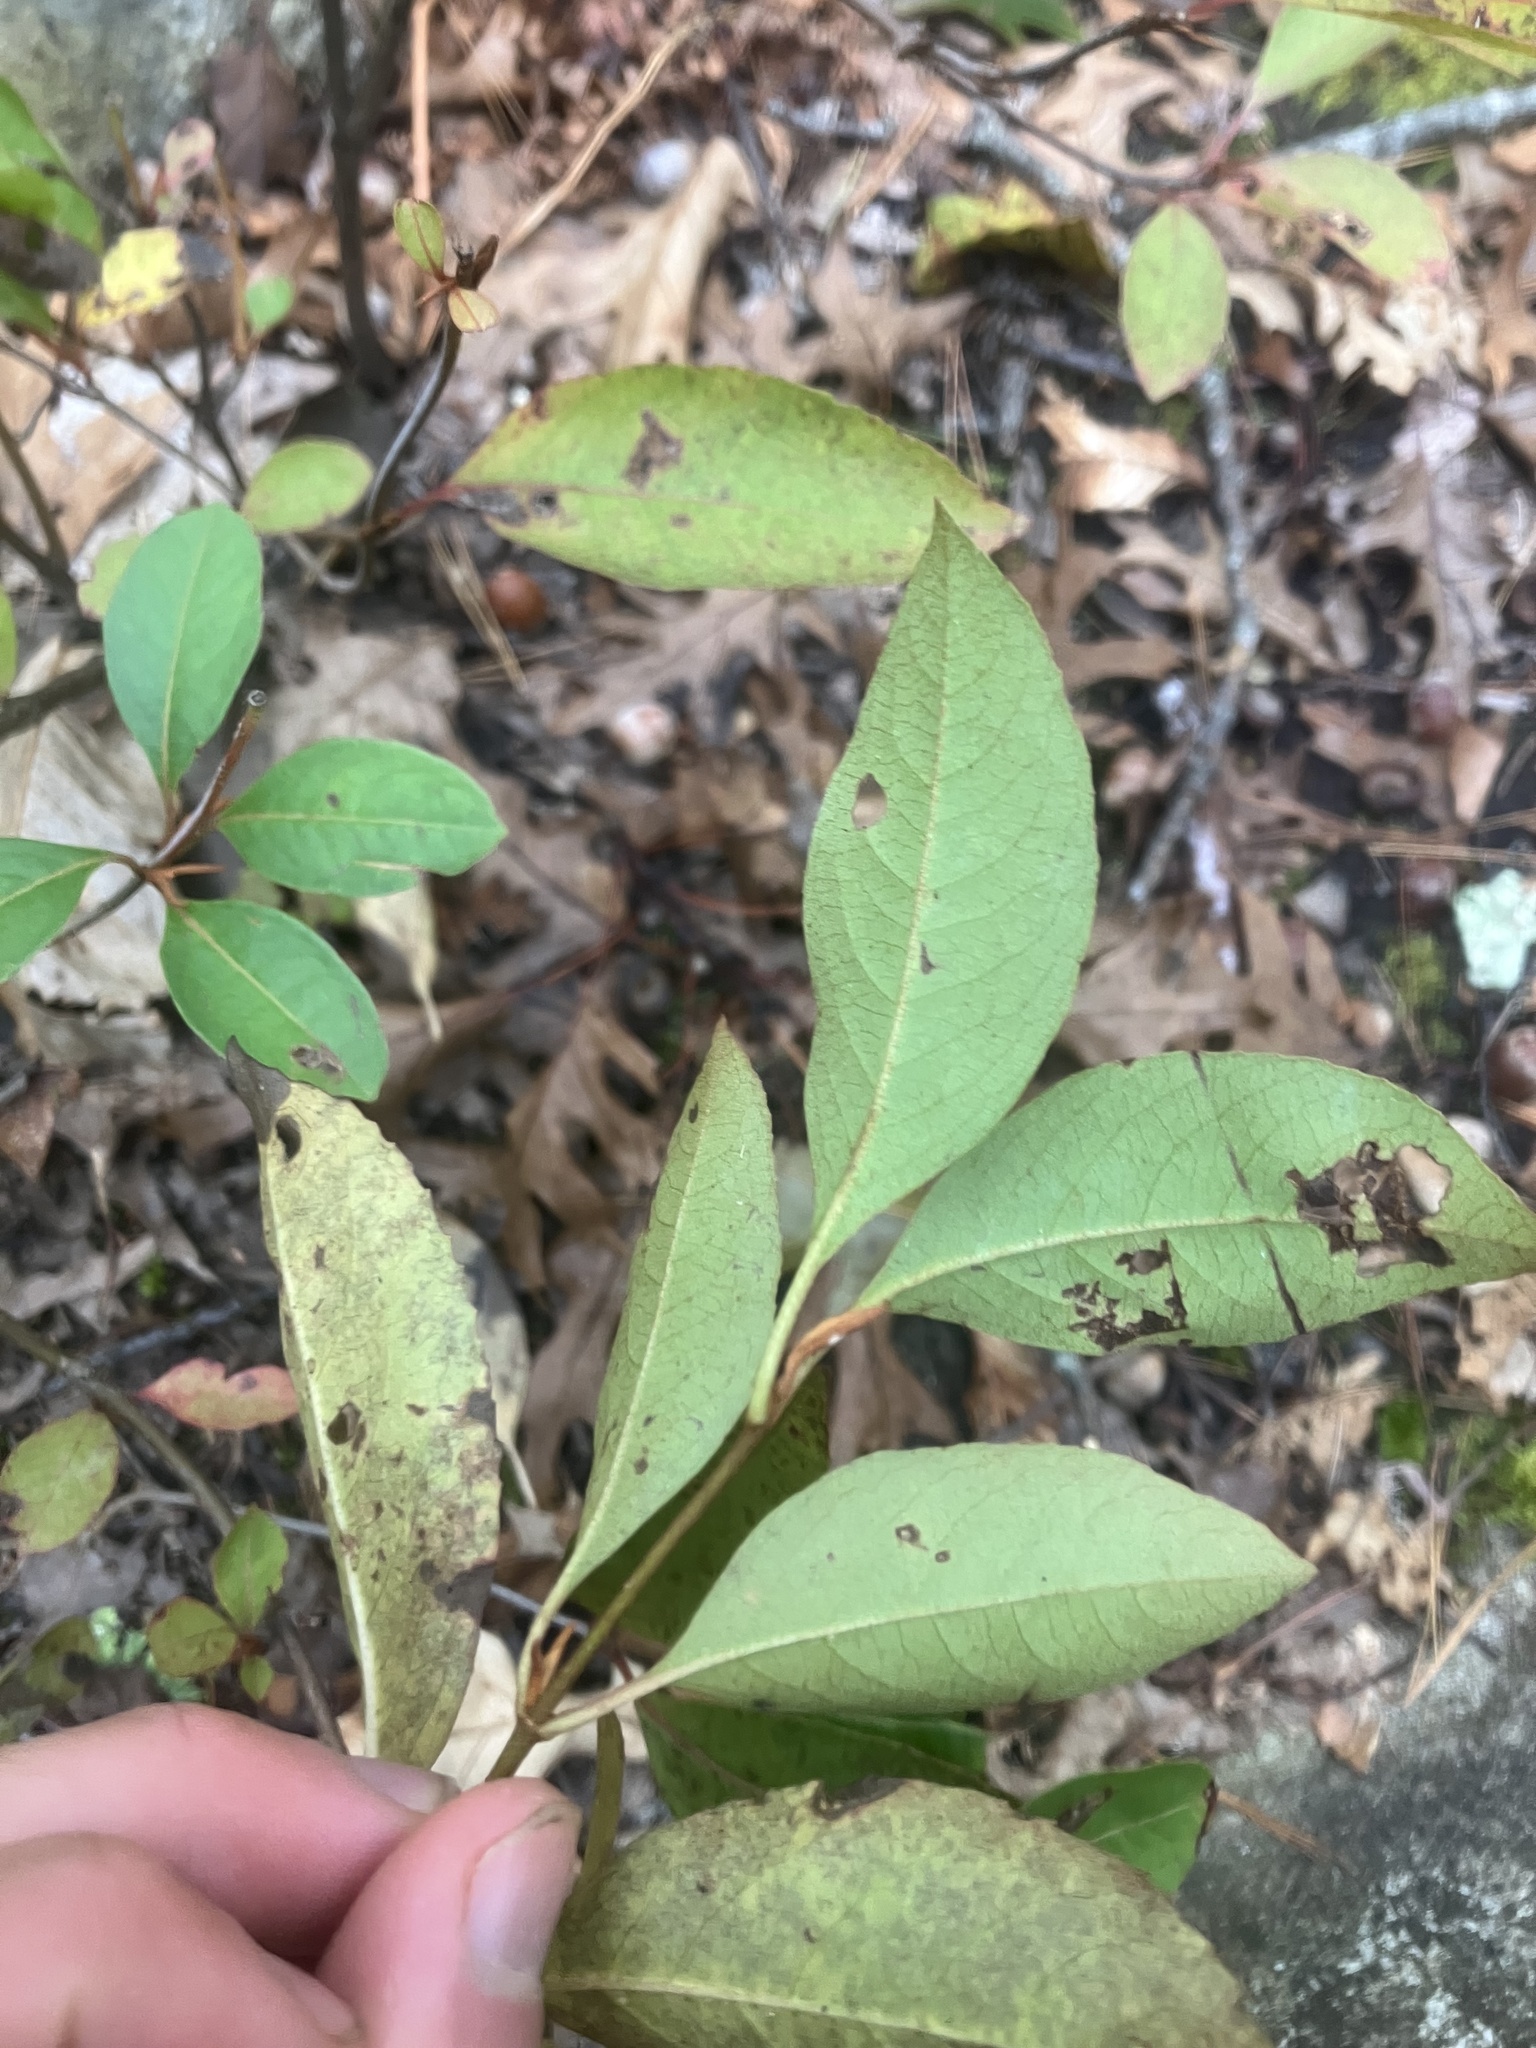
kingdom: Plantae
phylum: Tracheophyta
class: Magnoliopsida
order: Dipsacales
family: Viburnaceae
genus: Viburnum
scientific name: Viburnum cassinoides
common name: Swamp haw
